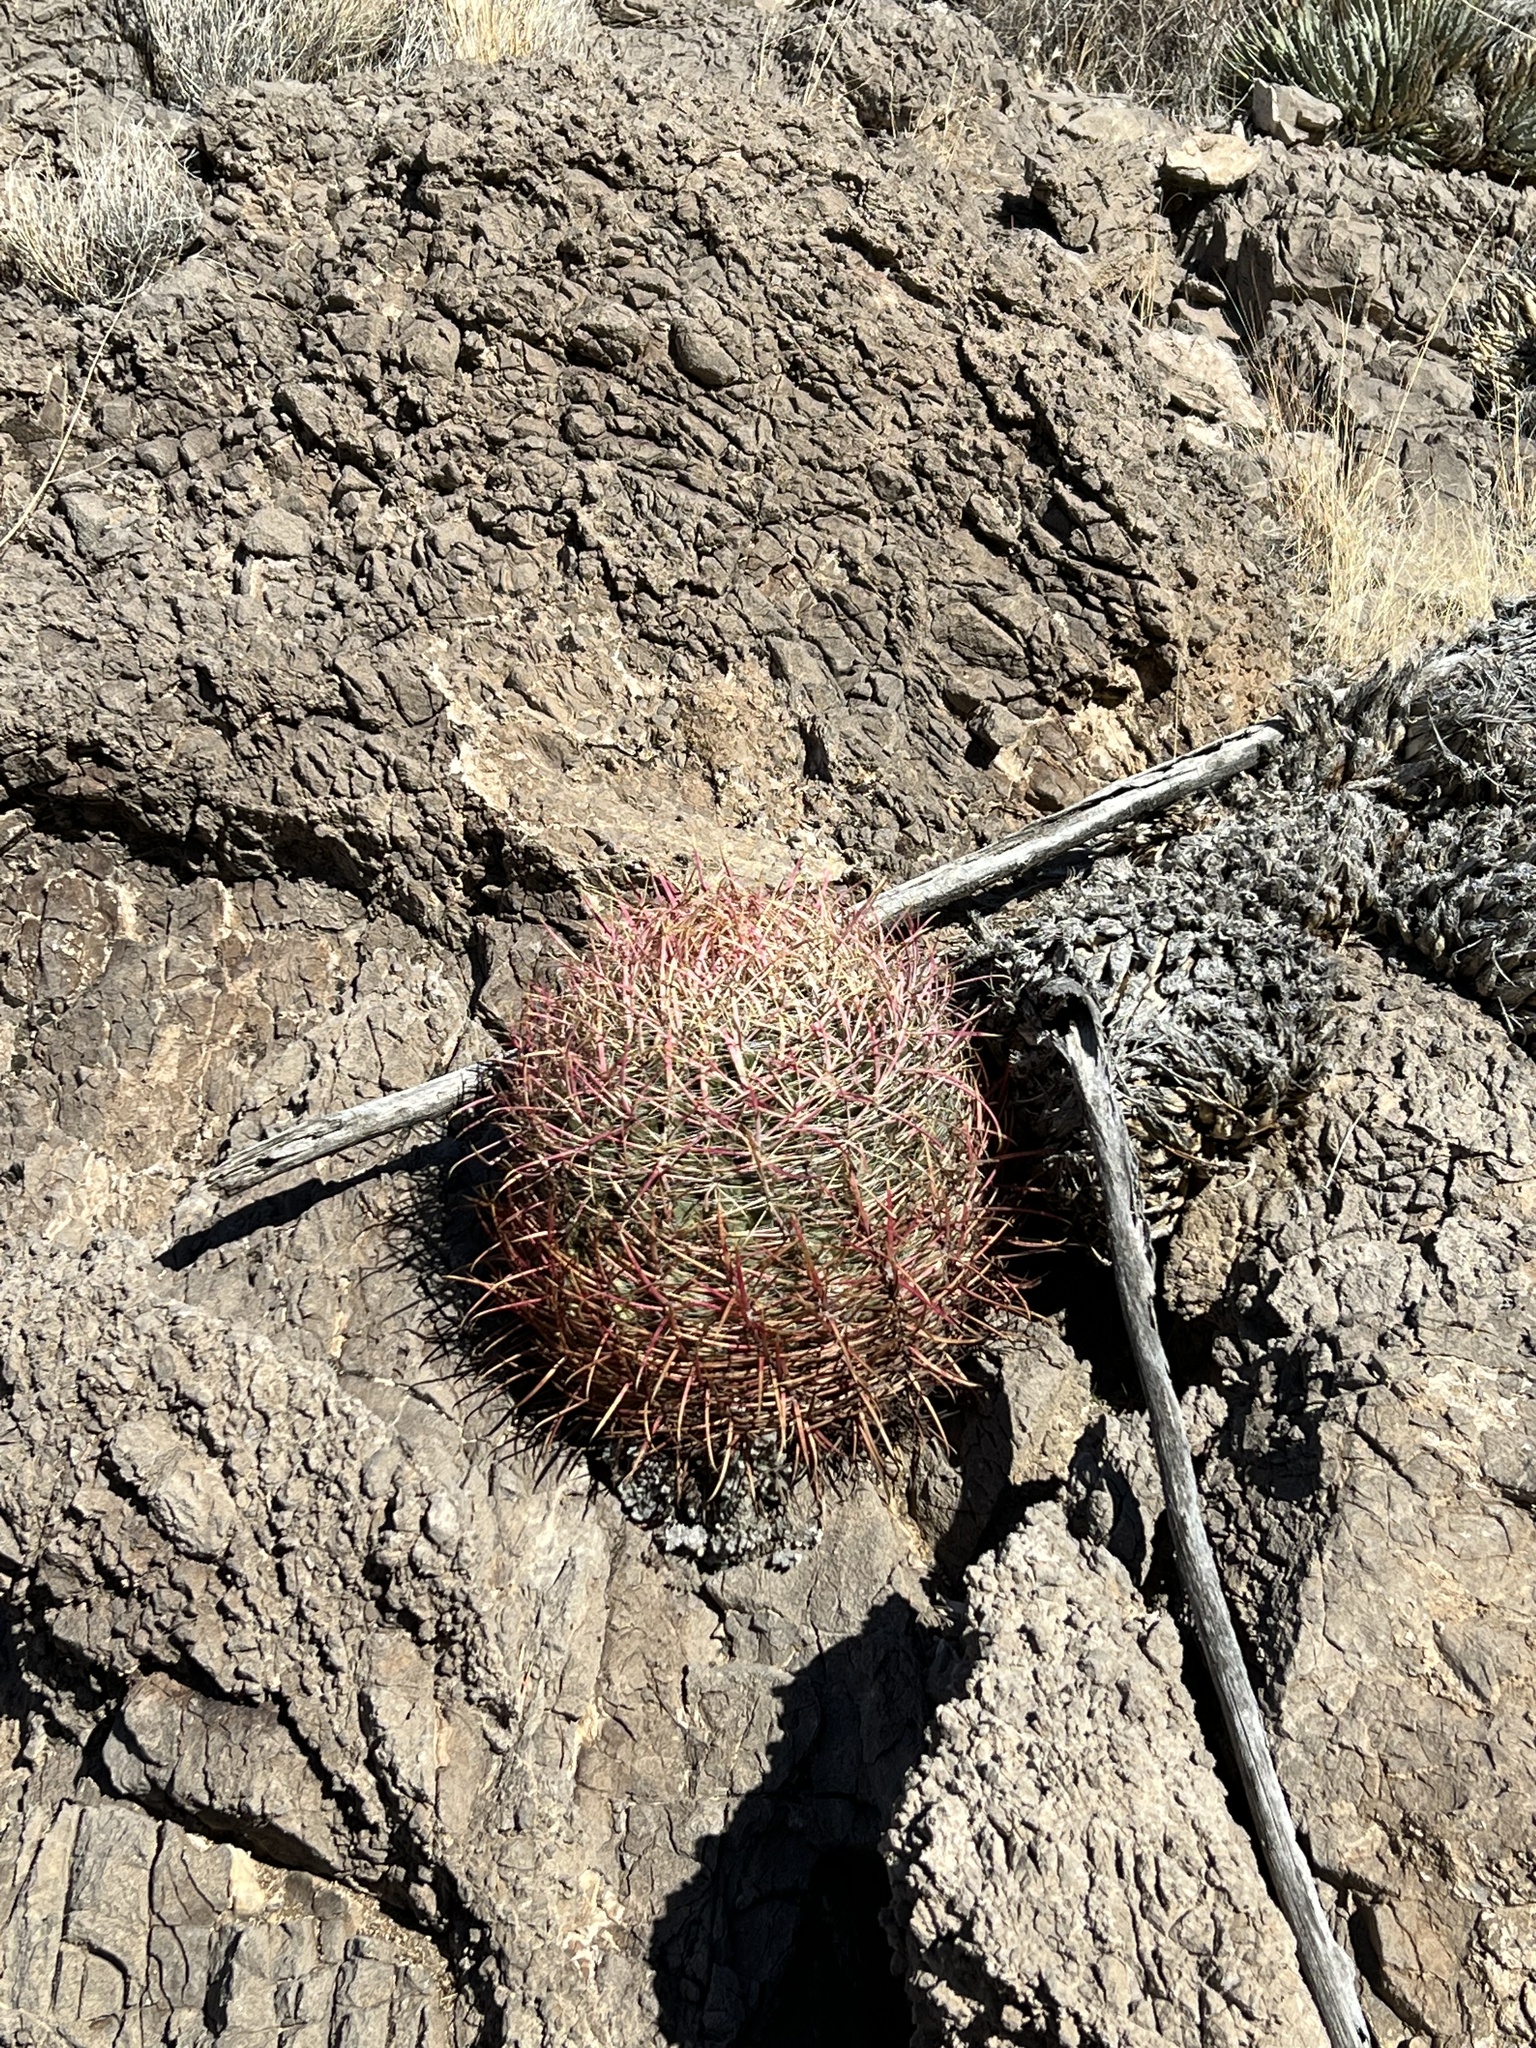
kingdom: Plantae
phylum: Tracheophyta
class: Magnoliopsida
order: Caryophyllales
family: Cactaceae
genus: Ferocactus
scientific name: Ferocactus cylindraceus
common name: California barrel cactus
